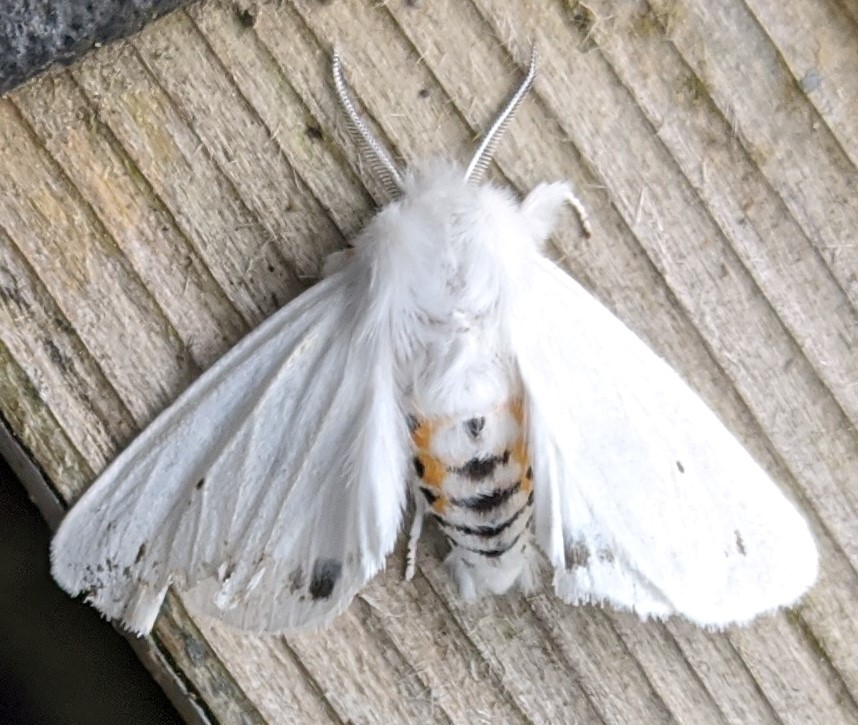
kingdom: Animalia
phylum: Arthropoda
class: Insecta
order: Lepidoptera
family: Erebidae
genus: Spilosoma
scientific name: Spilosoma virginica
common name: Virginia tiger moth
